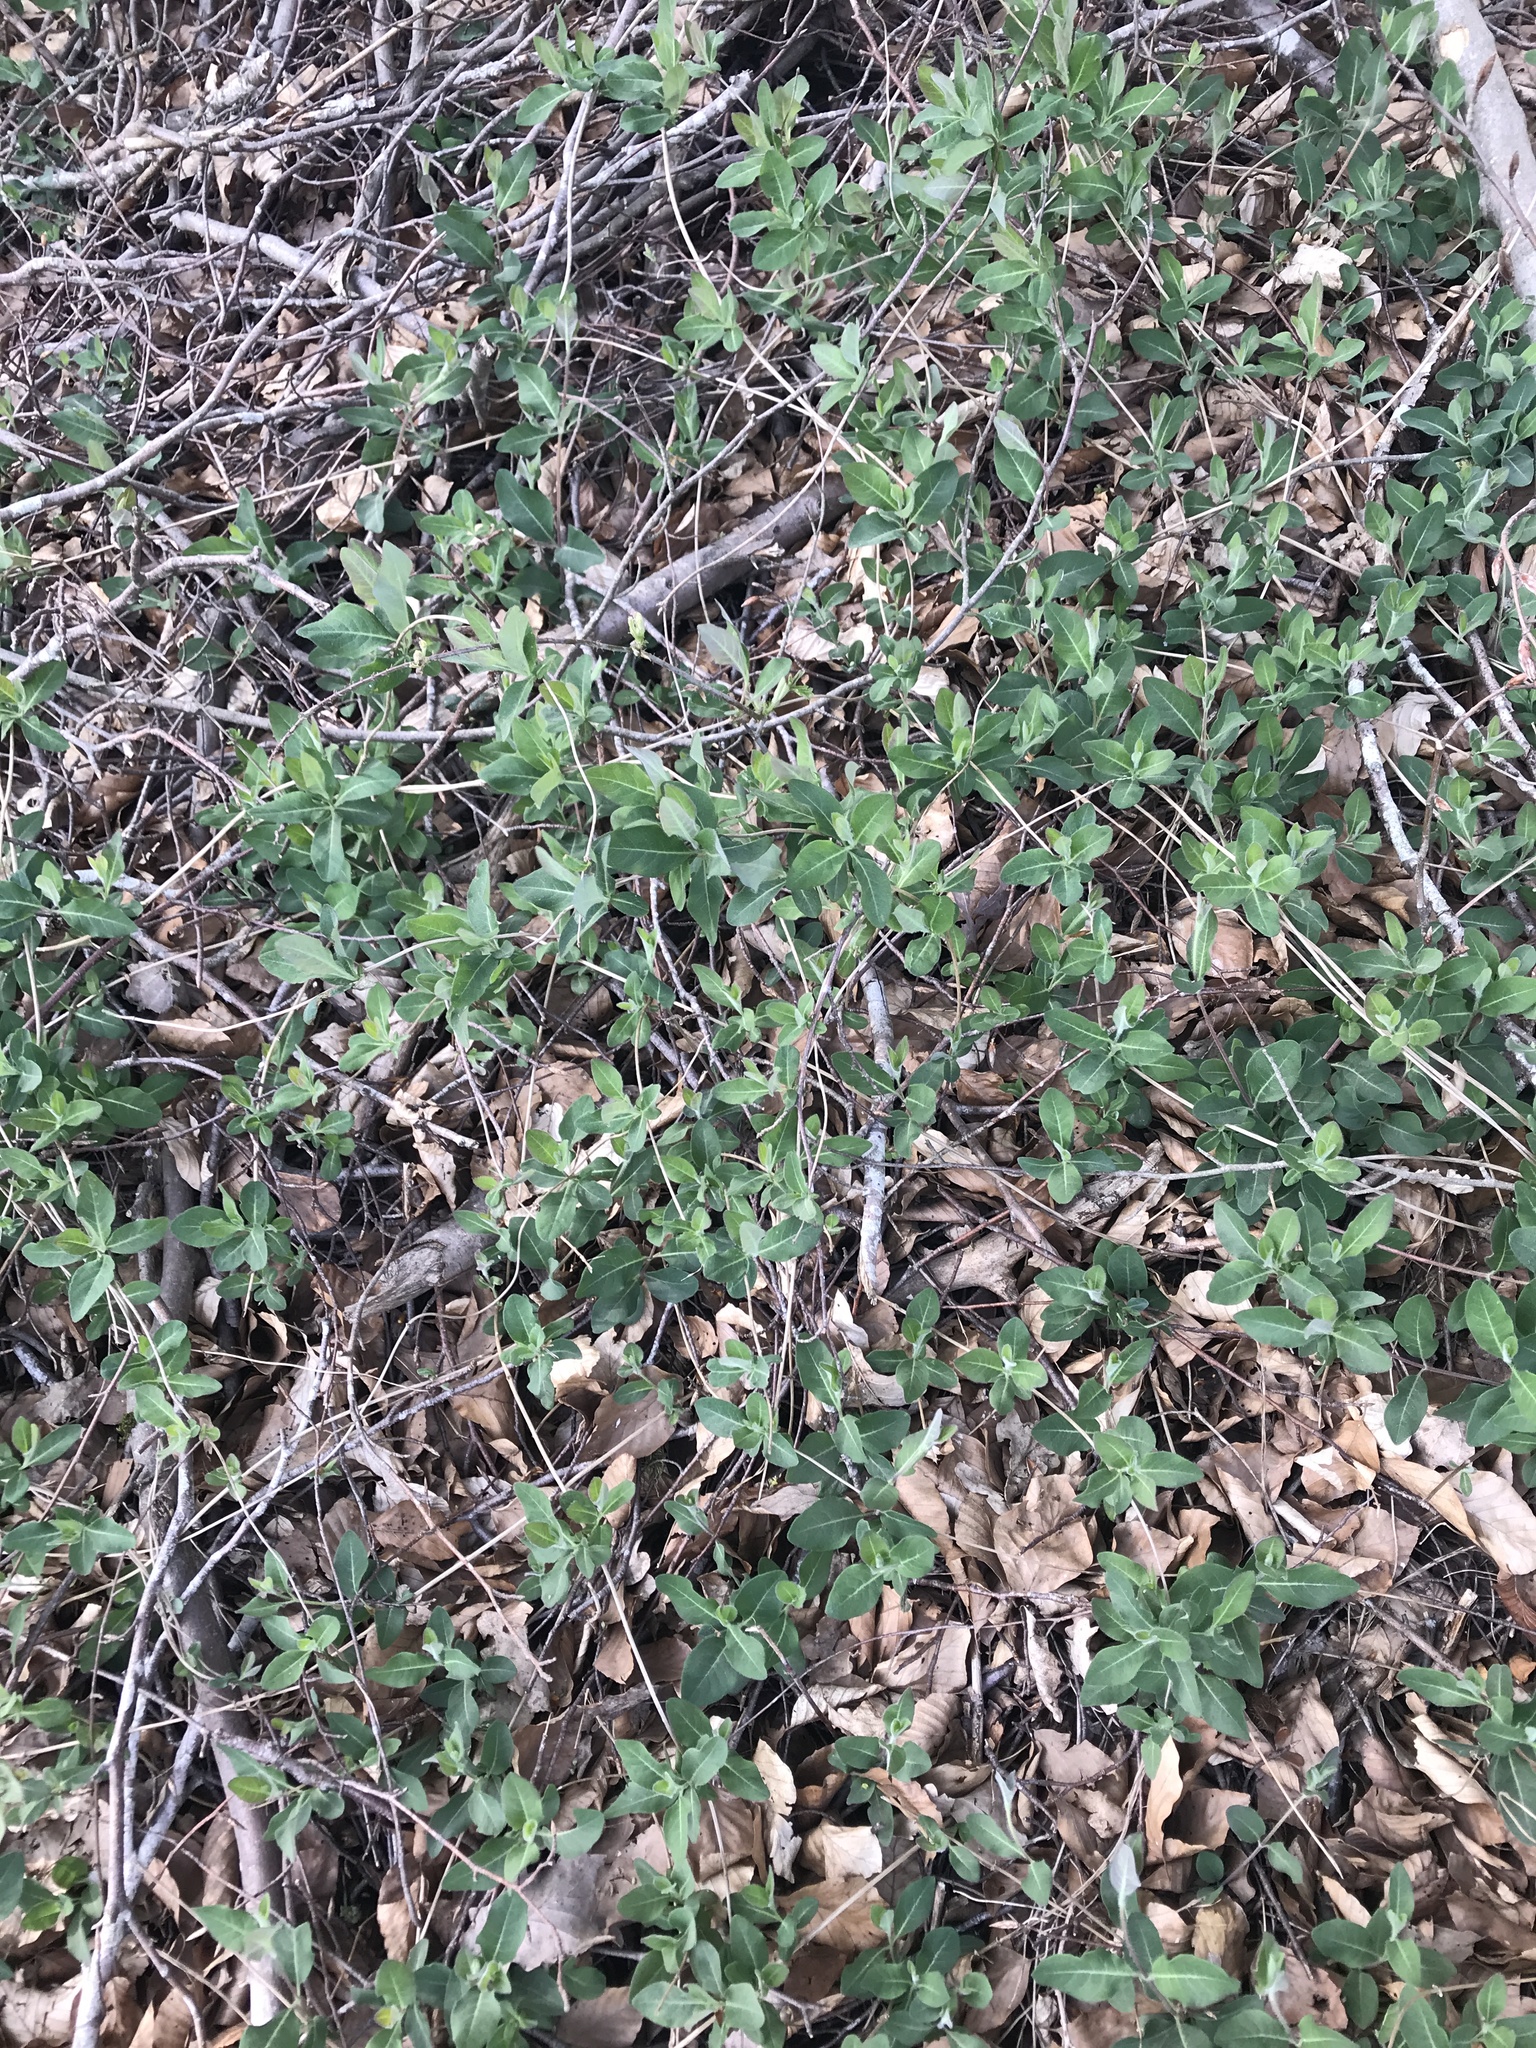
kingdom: Plantae
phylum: Tracheophyta
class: Magnoliopsida
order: Dipsacales
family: Caprifoliaceae
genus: Lonicera
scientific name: Lonicera periclymenum
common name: European honeysuckle
